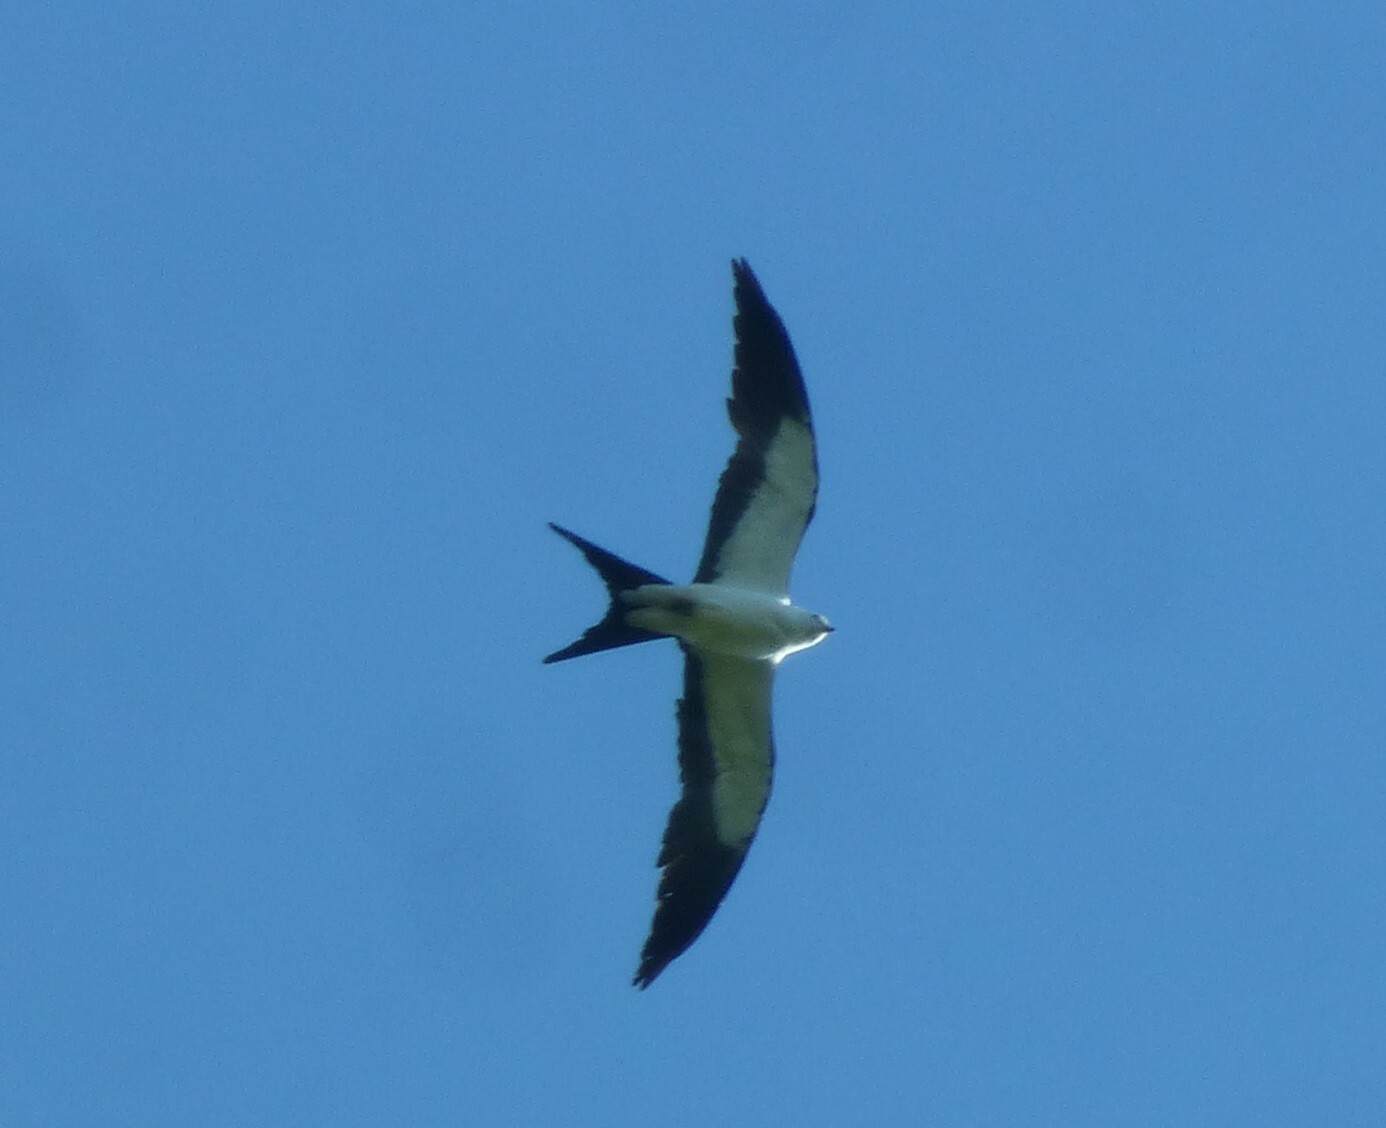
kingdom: Animalia
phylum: Chordata
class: Aves
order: Accipitriformes
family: Accipitridae
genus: Elanoides
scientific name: Elanoides forficatus
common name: Swallow-tailed kite
